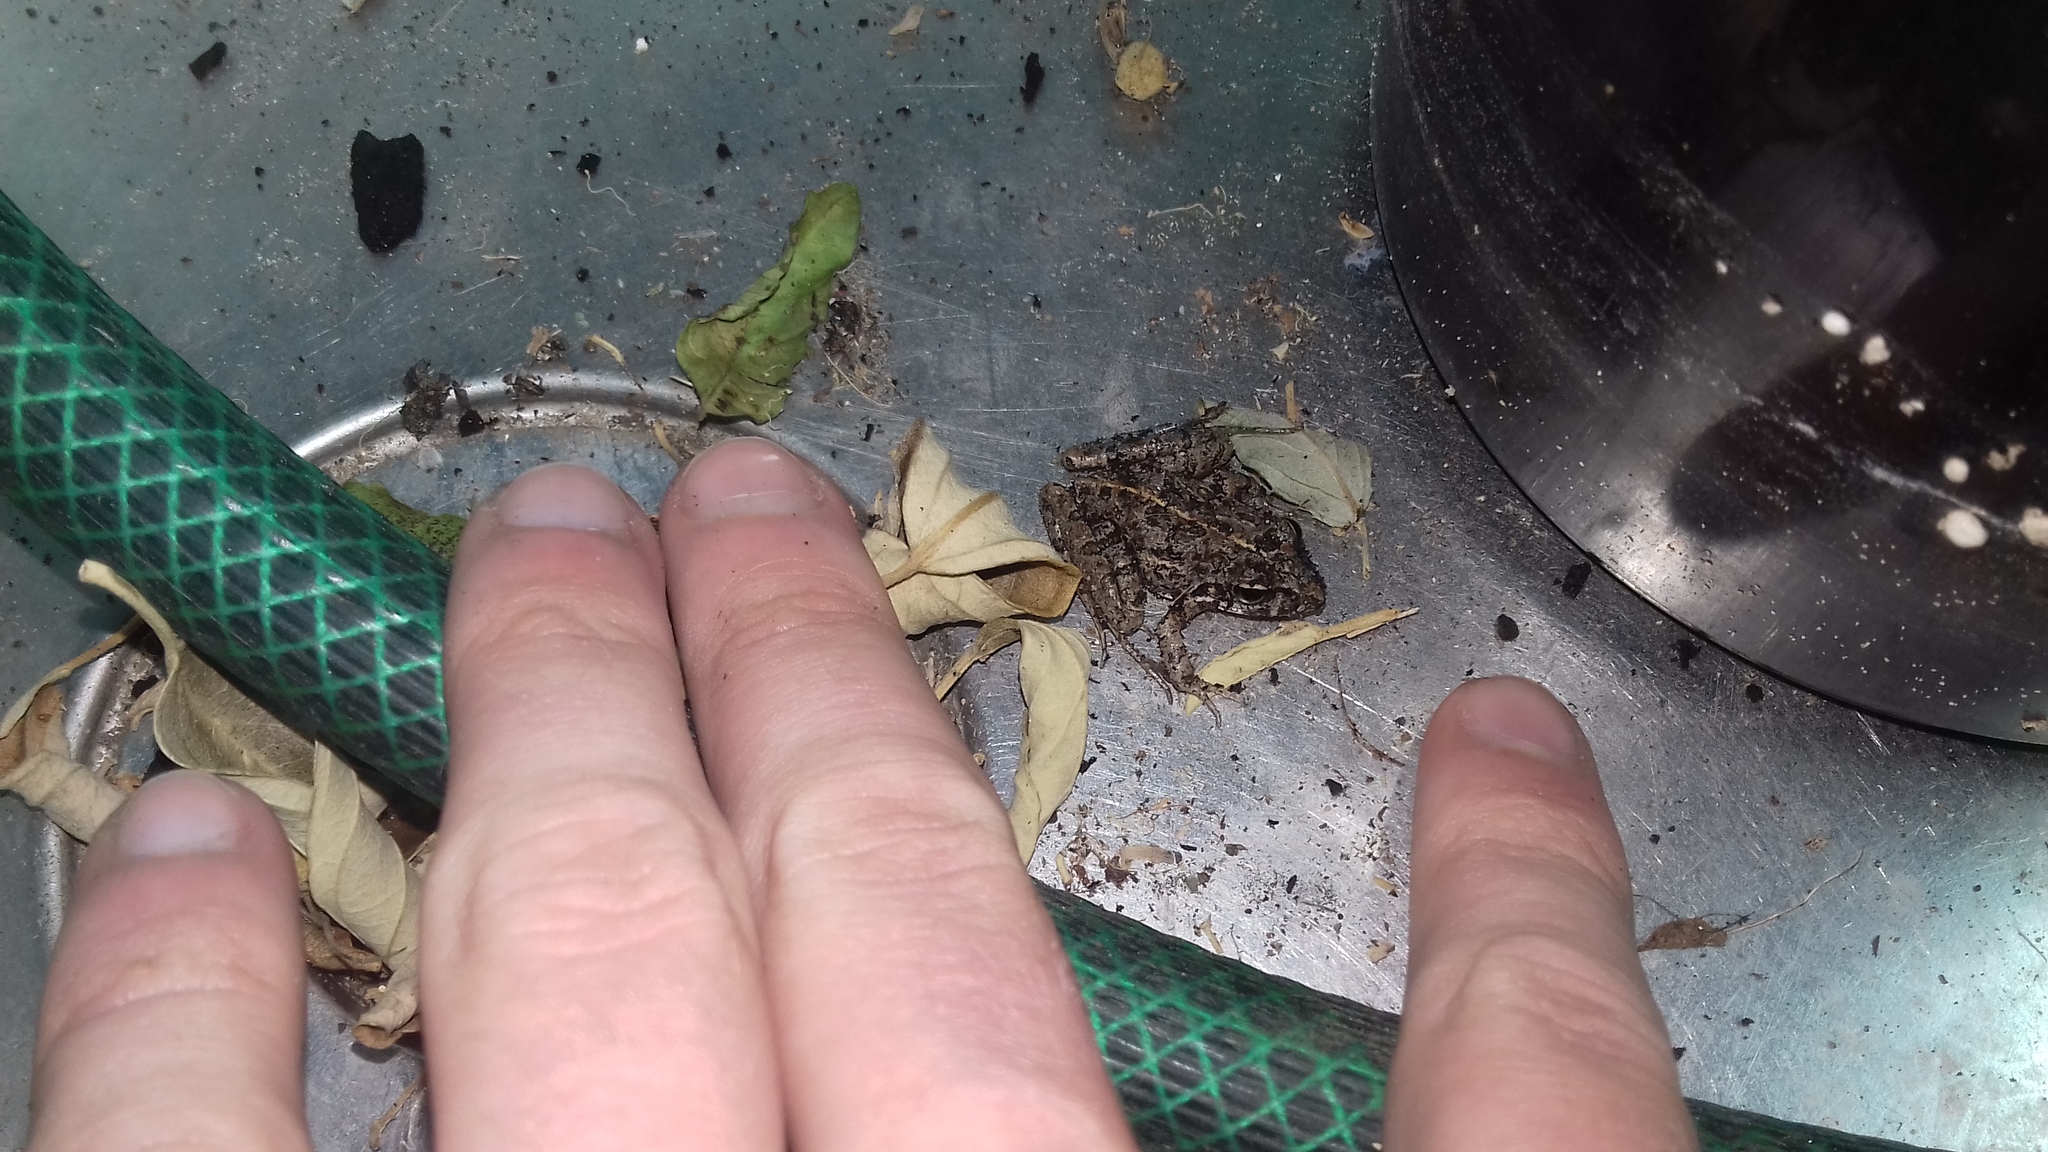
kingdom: Animalia
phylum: Chordata
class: Amphibia
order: Anura
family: Pyxicephalidae
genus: Strongylopus
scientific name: Strongylopus grayii
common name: Gray's stream frog
